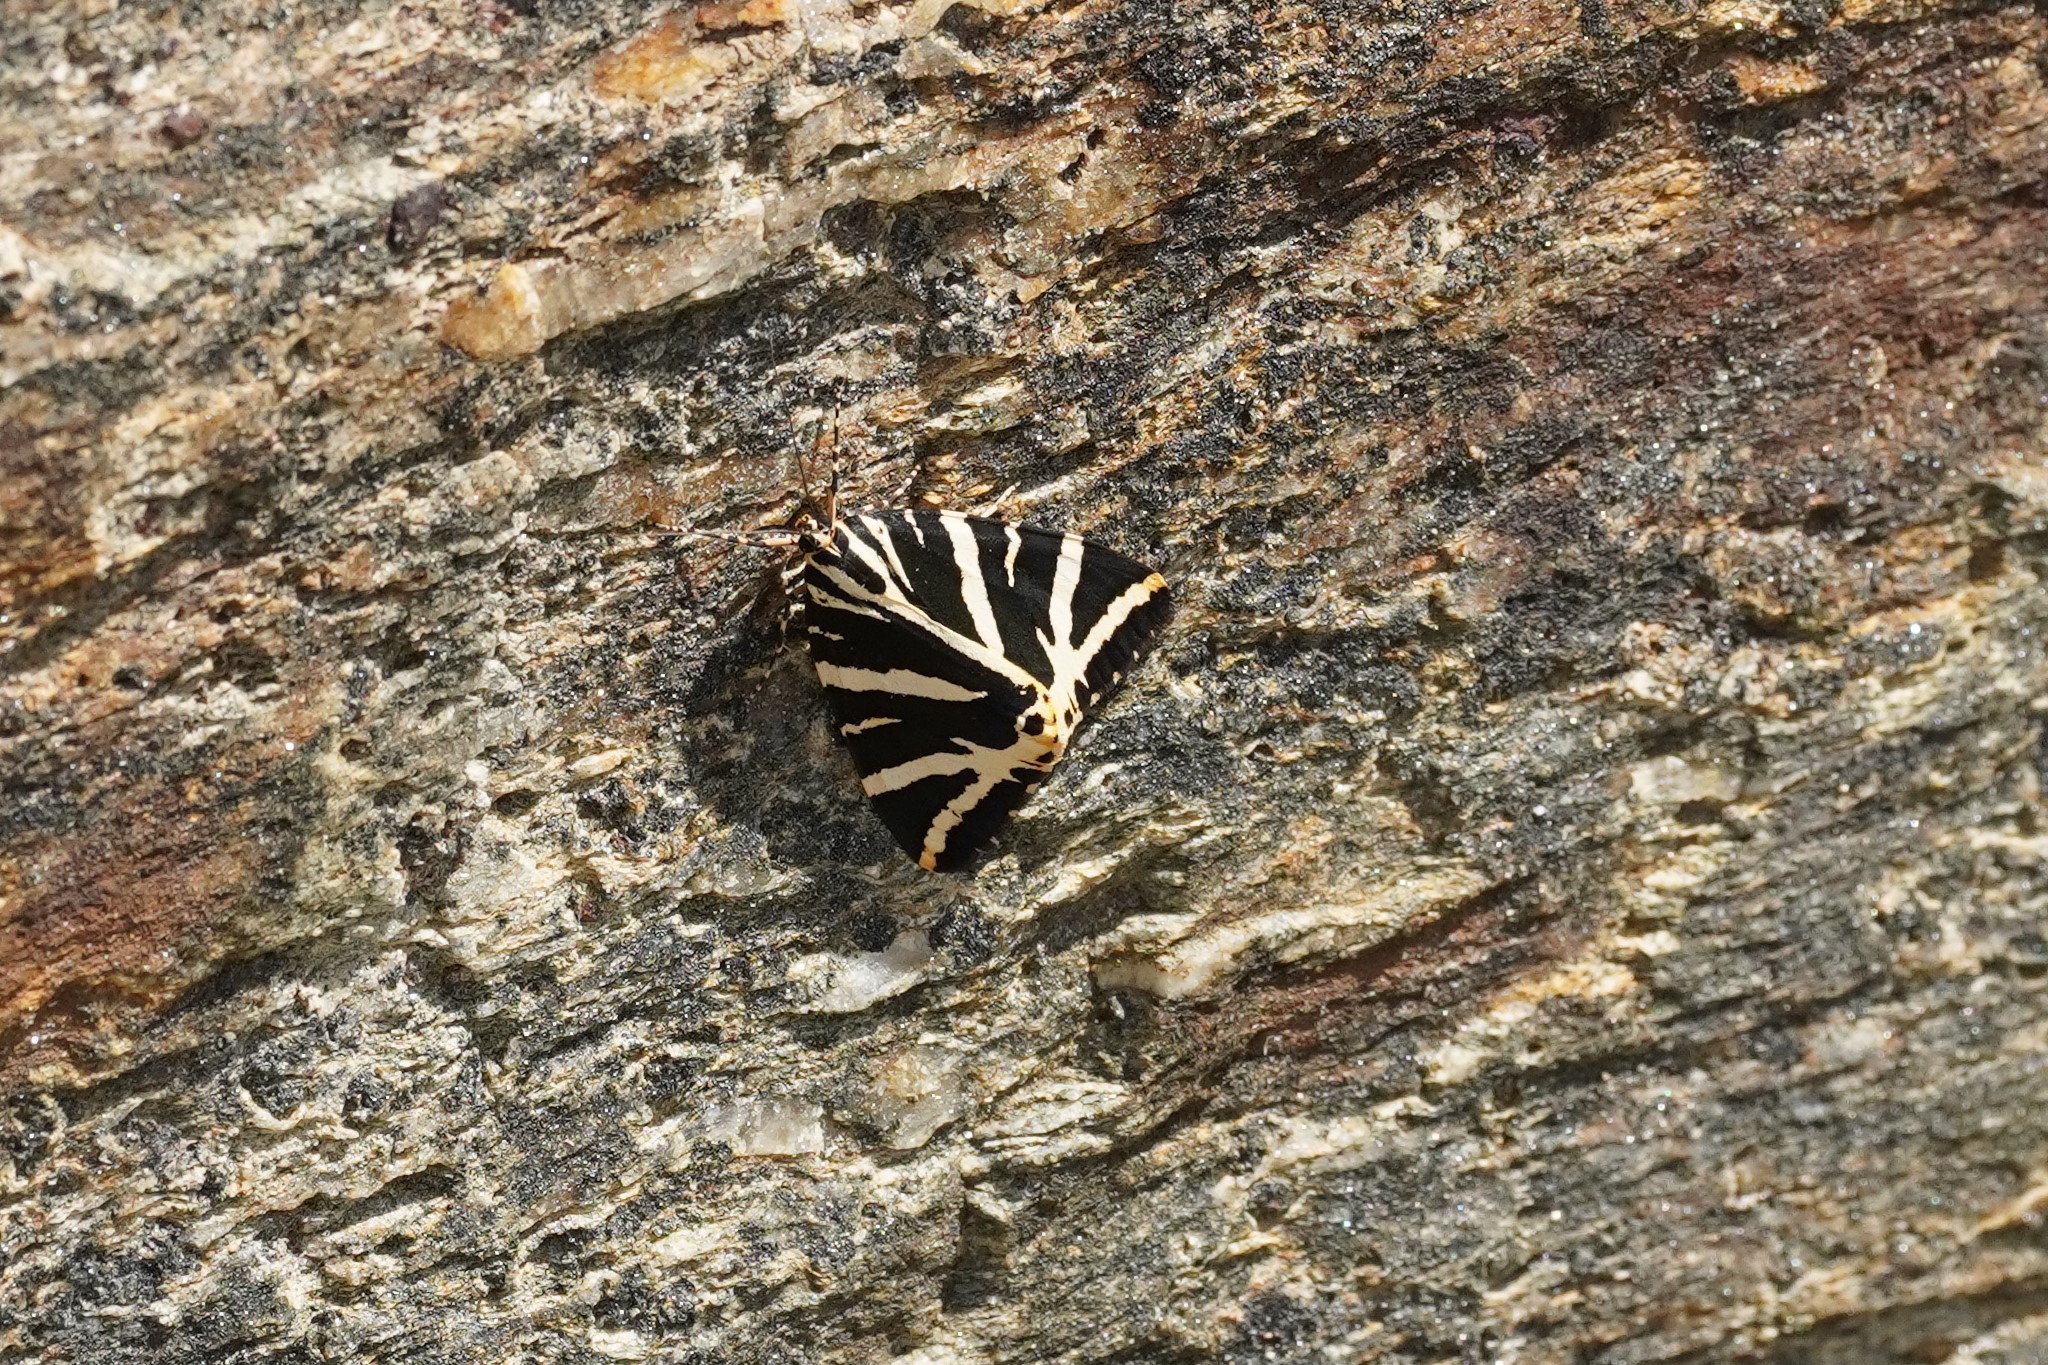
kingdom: Animalia
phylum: Arthropoda
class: Insecta
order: Lepidoptera
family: Erebidae
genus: Euplagia
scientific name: Euplagia quadripunctaria
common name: Jersey tiger
